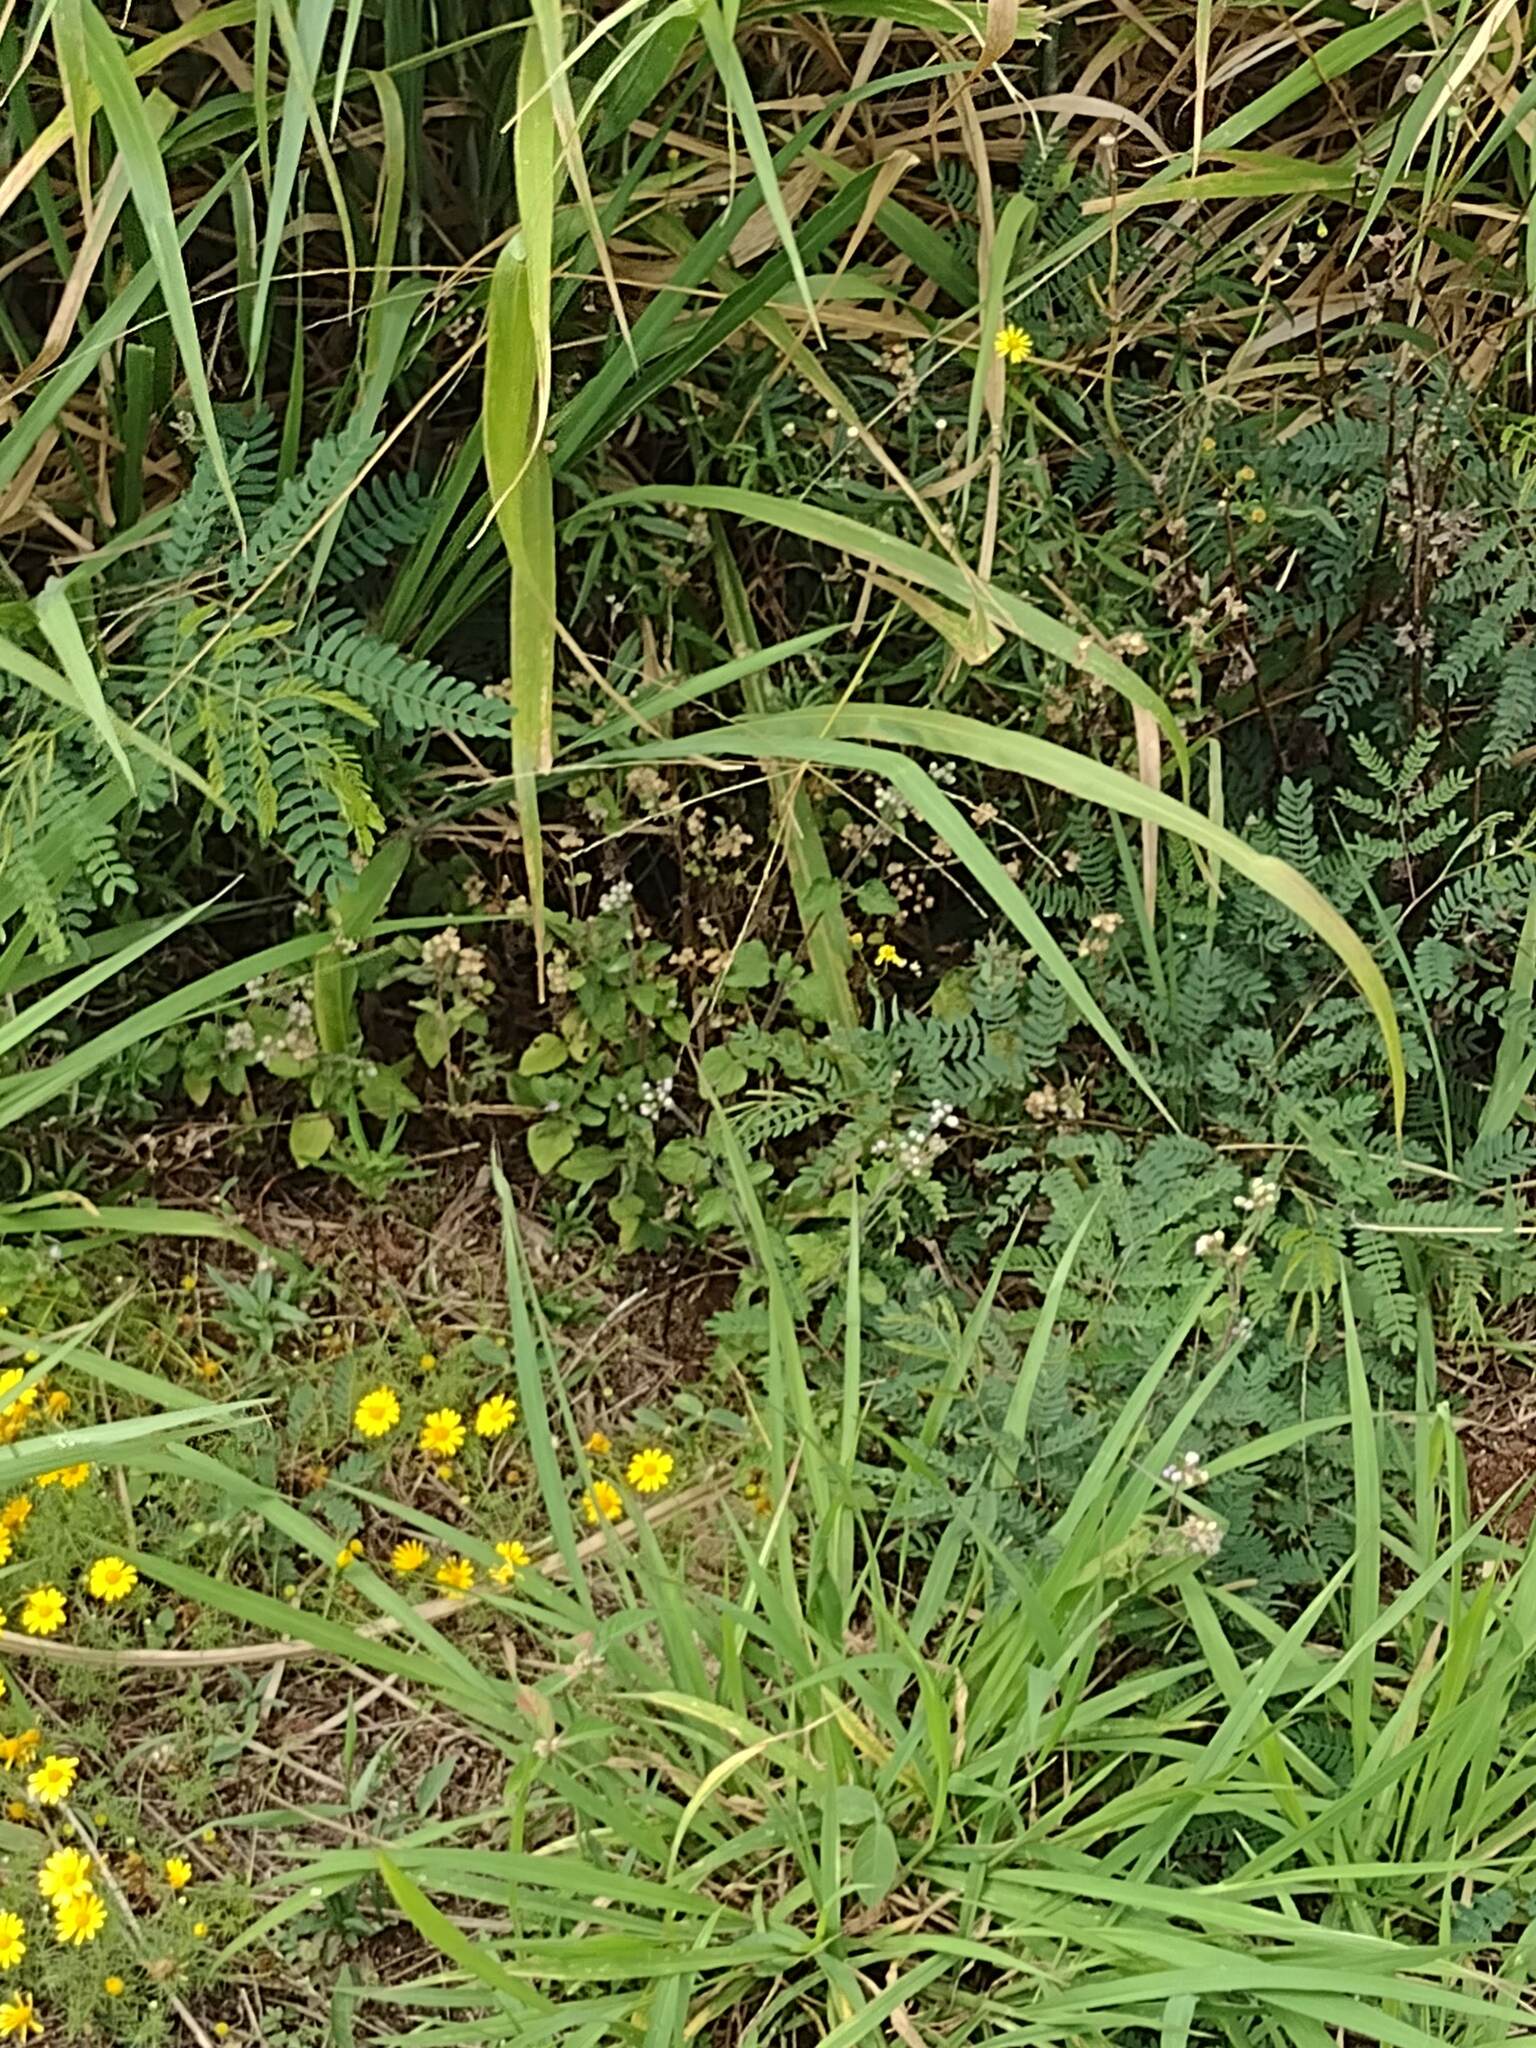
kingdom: Plantae
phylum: Tracheophyta
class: Magnoliopsida
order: Asterales
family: Asteraceae
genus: Ageratum
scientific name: Ageratum conyzoides
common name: Tropical whiteweed
